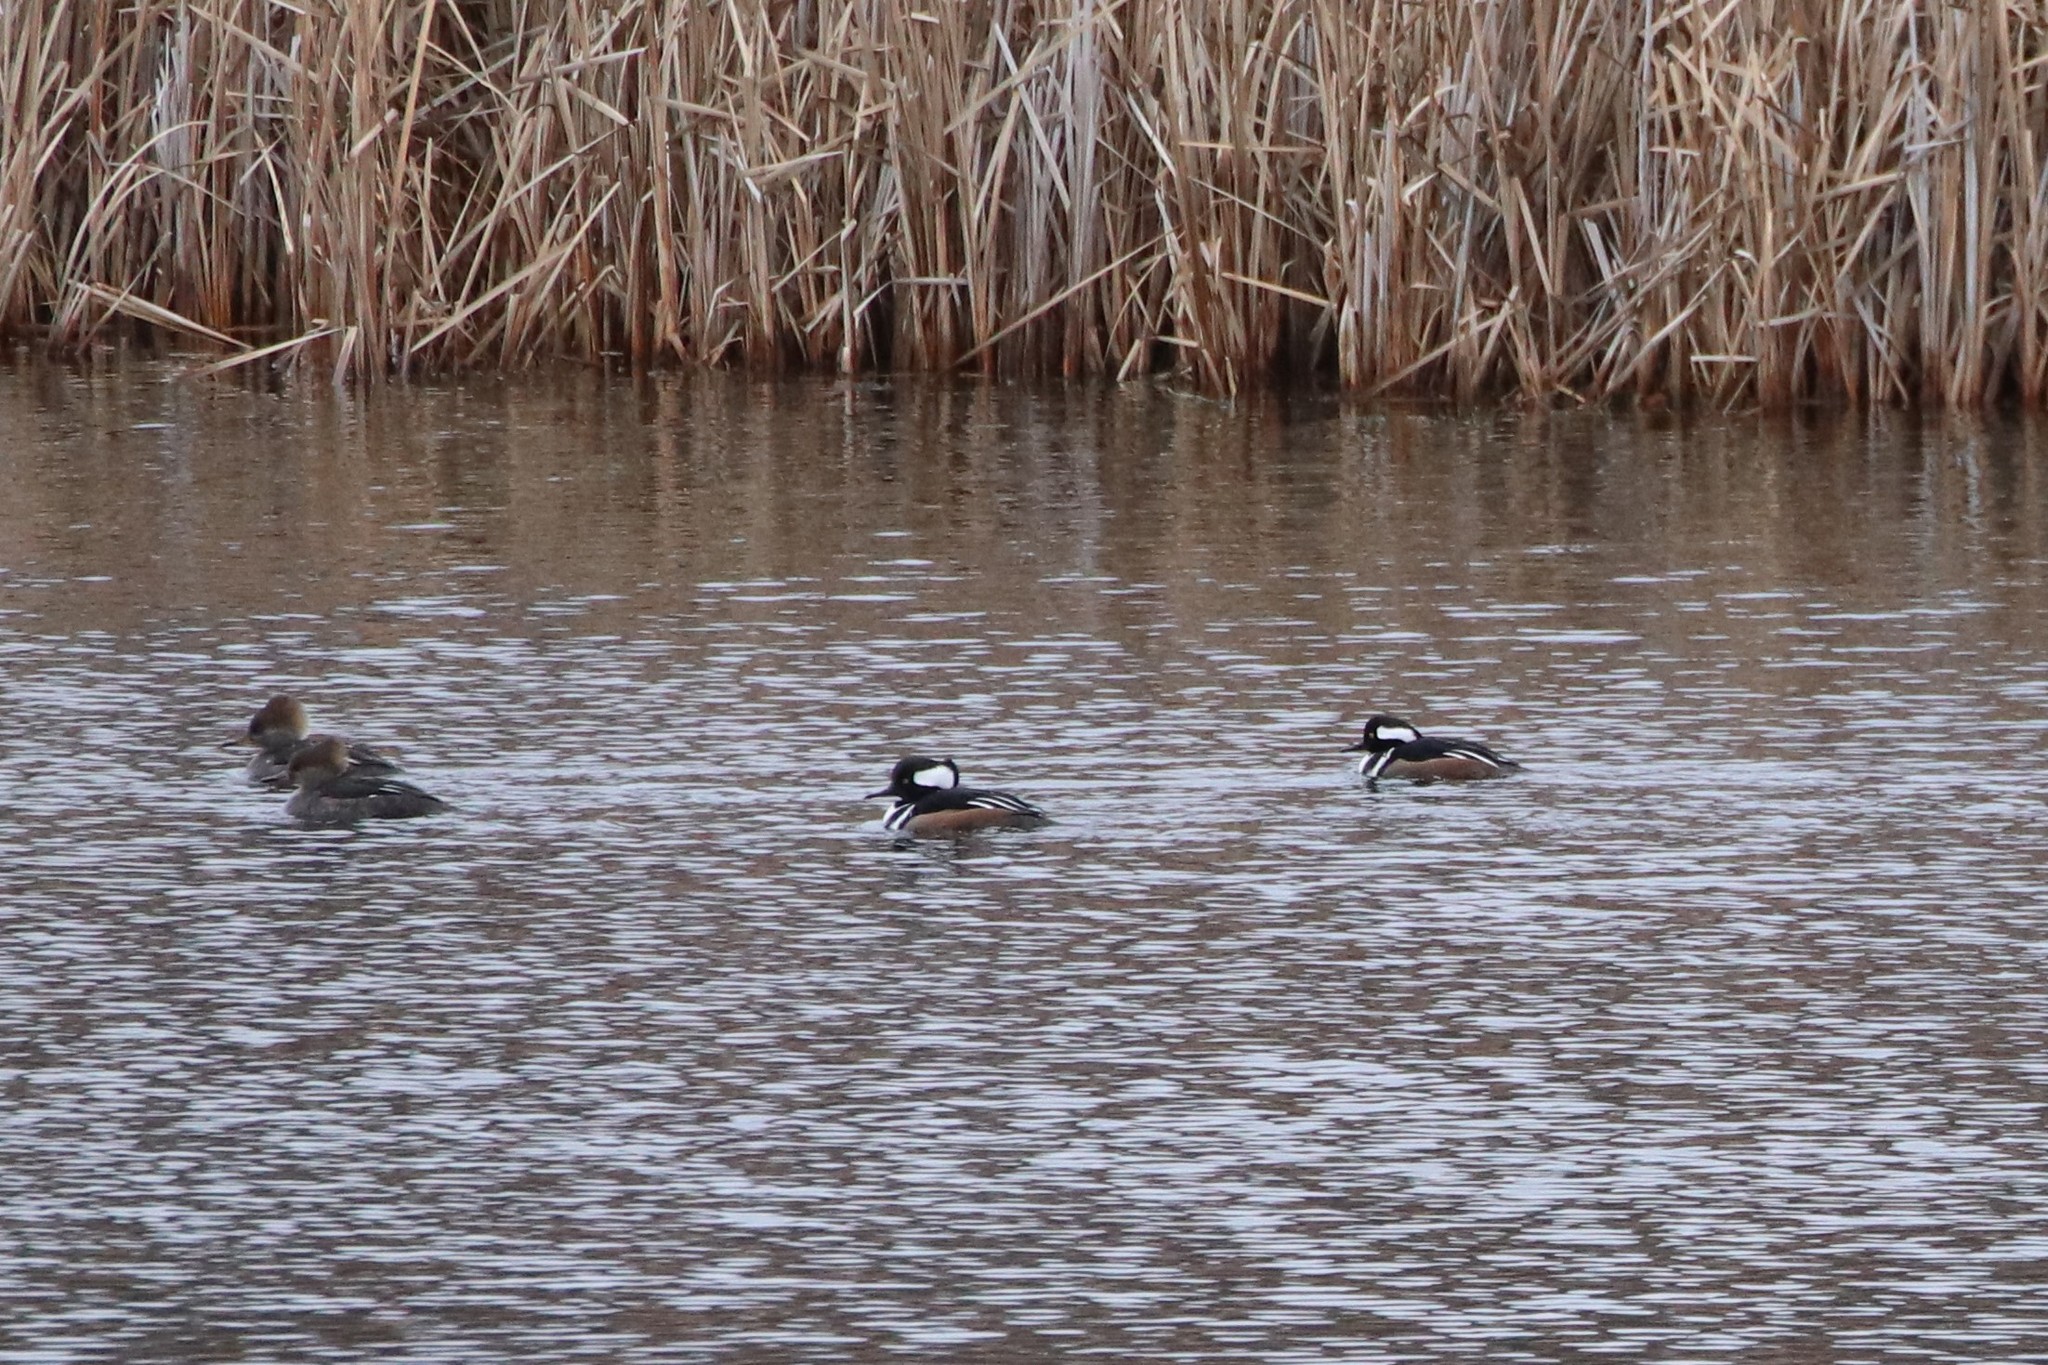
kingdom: Animalia
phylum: Chordata
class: Aves
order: Anseriformes
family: Anatidae
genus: Lophodytes
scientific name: Lophodytes cucullatus
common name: Hooded merganser
